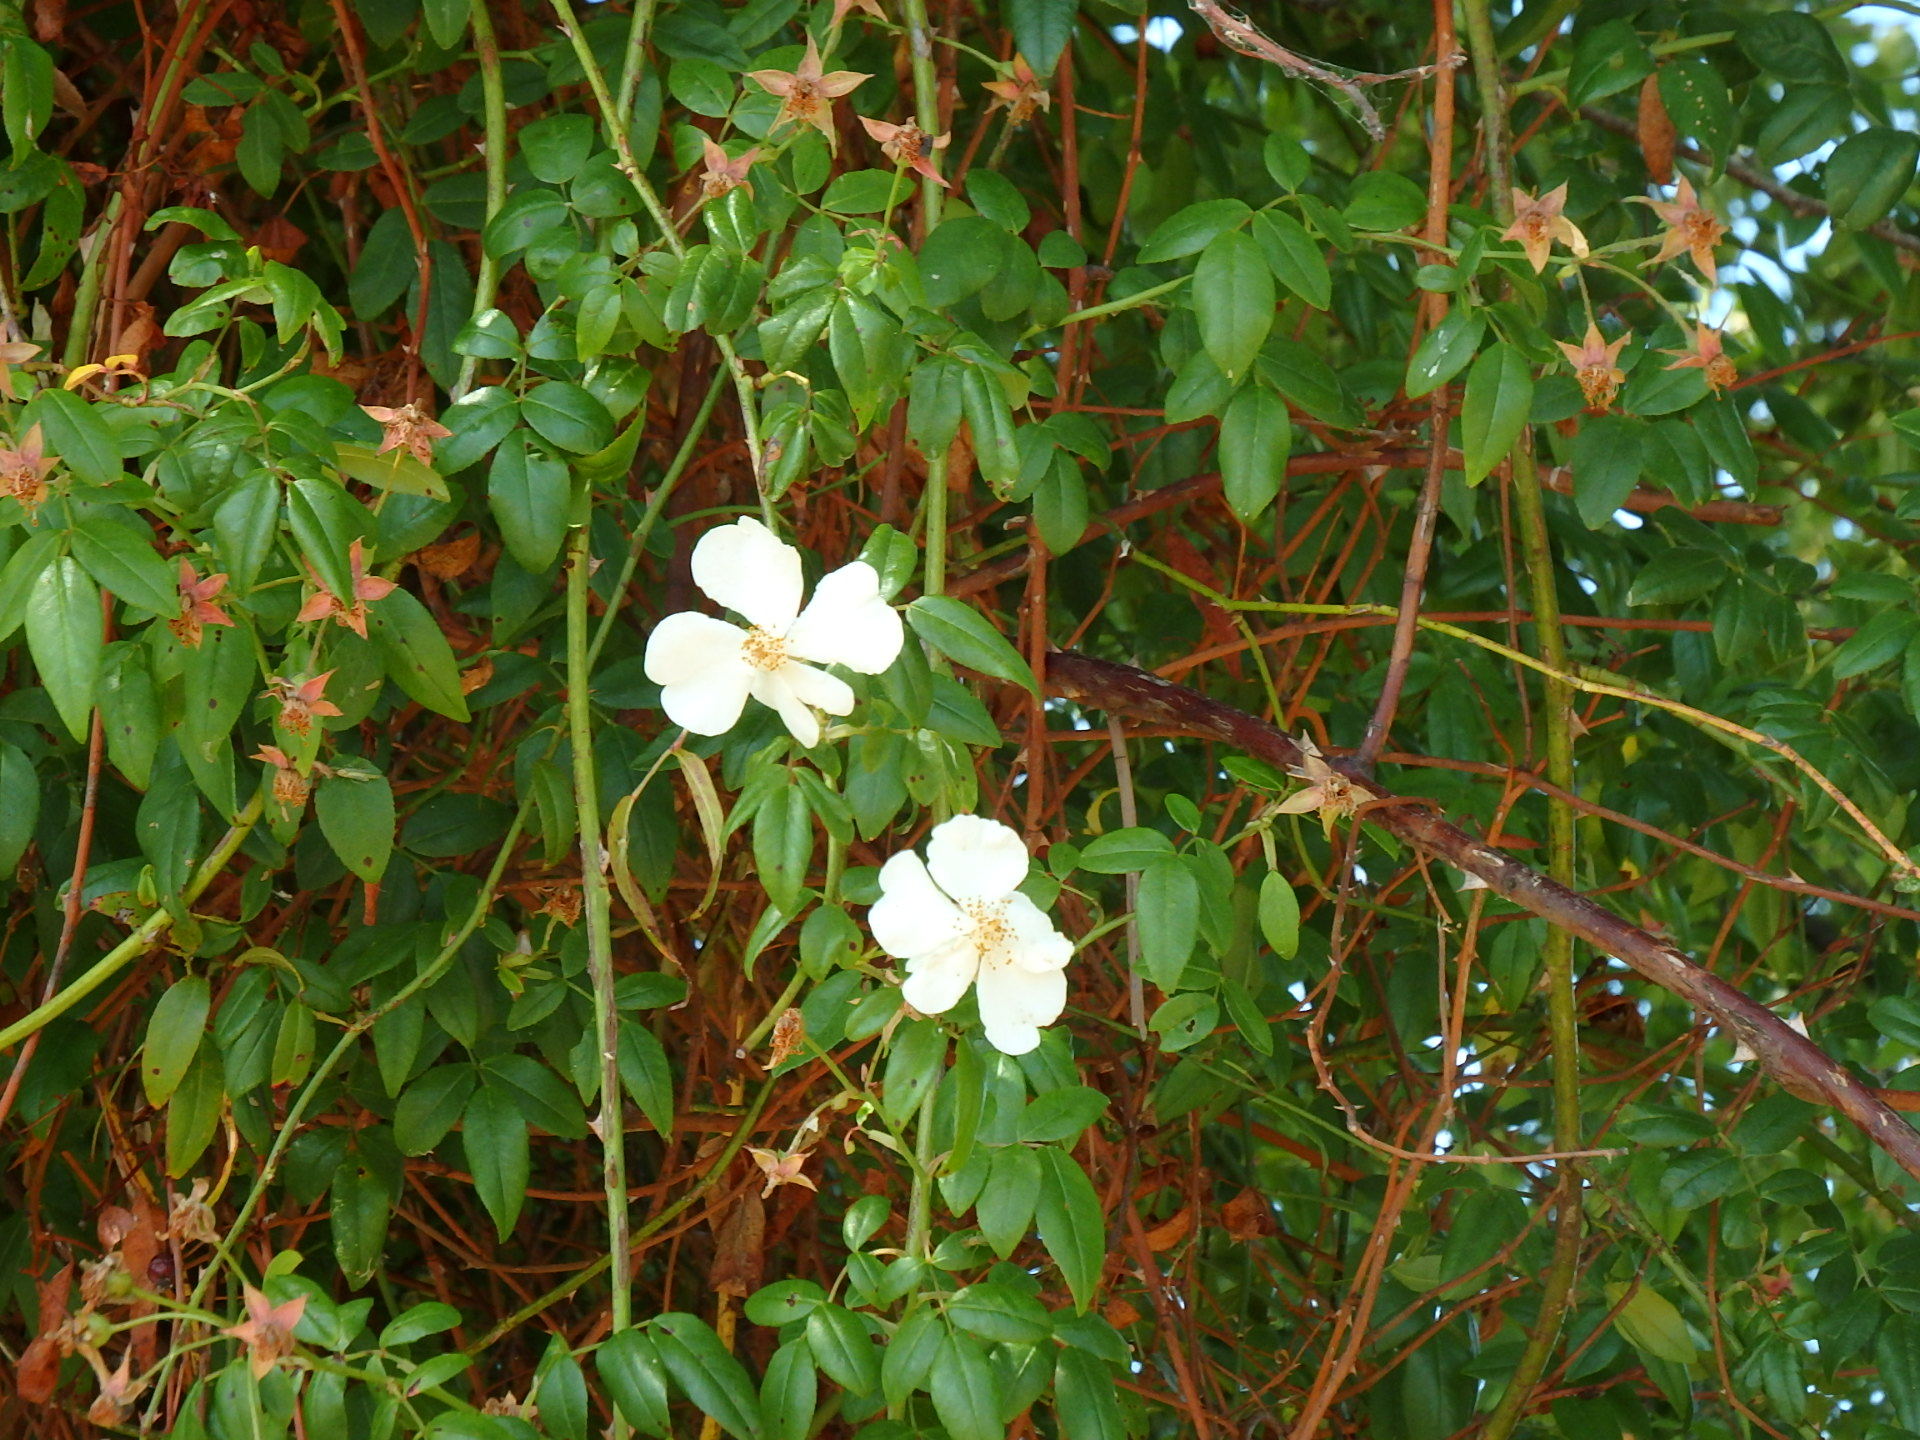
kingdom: Plantae
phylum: Tracheophyta
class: Magnoliopsida
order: Rosales
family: Rosaceae
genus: Rosa
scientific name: Rosa sempervirens
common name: Evergreen rose
